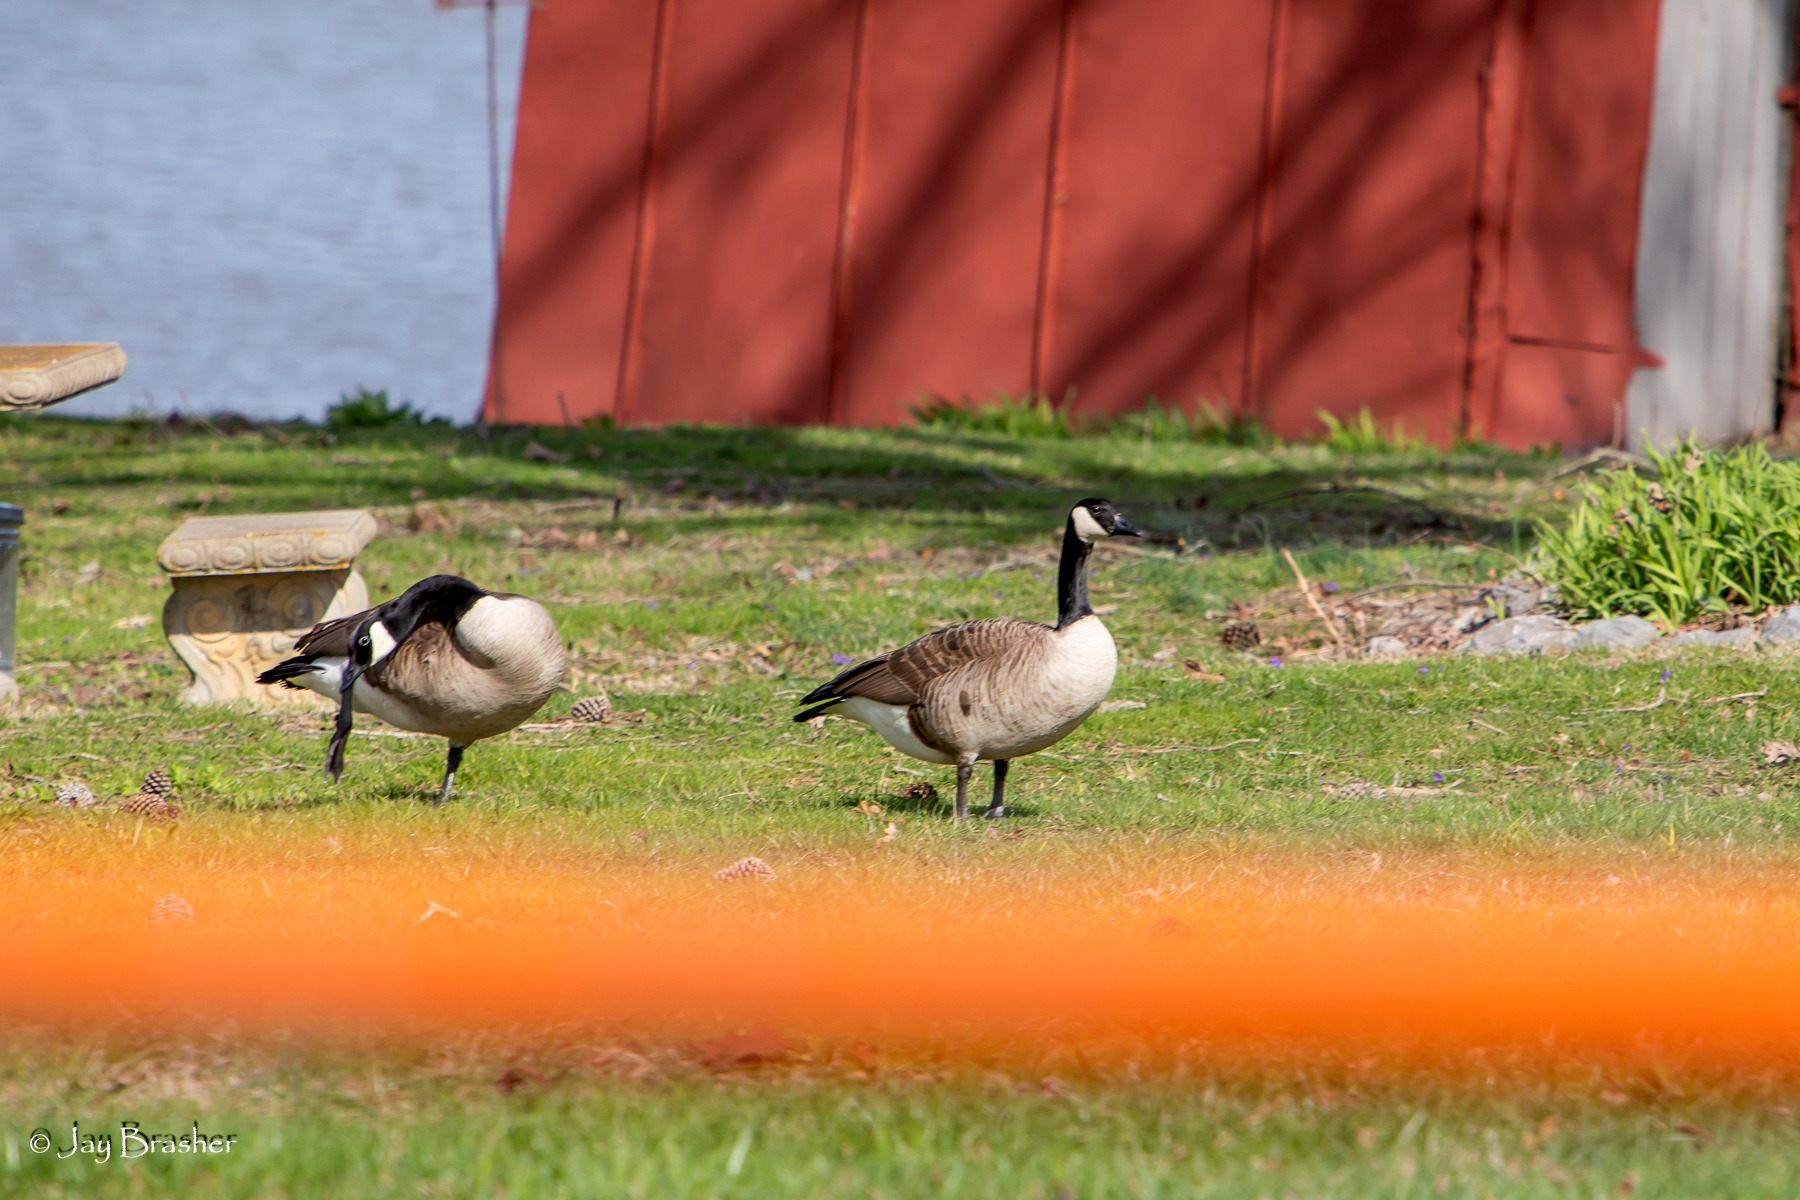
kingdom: Animalia
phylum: Chordata
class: Aves
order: Anseriformes
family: Anatidae
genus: Branta
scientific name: Branta canadensis
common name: Canada goose
